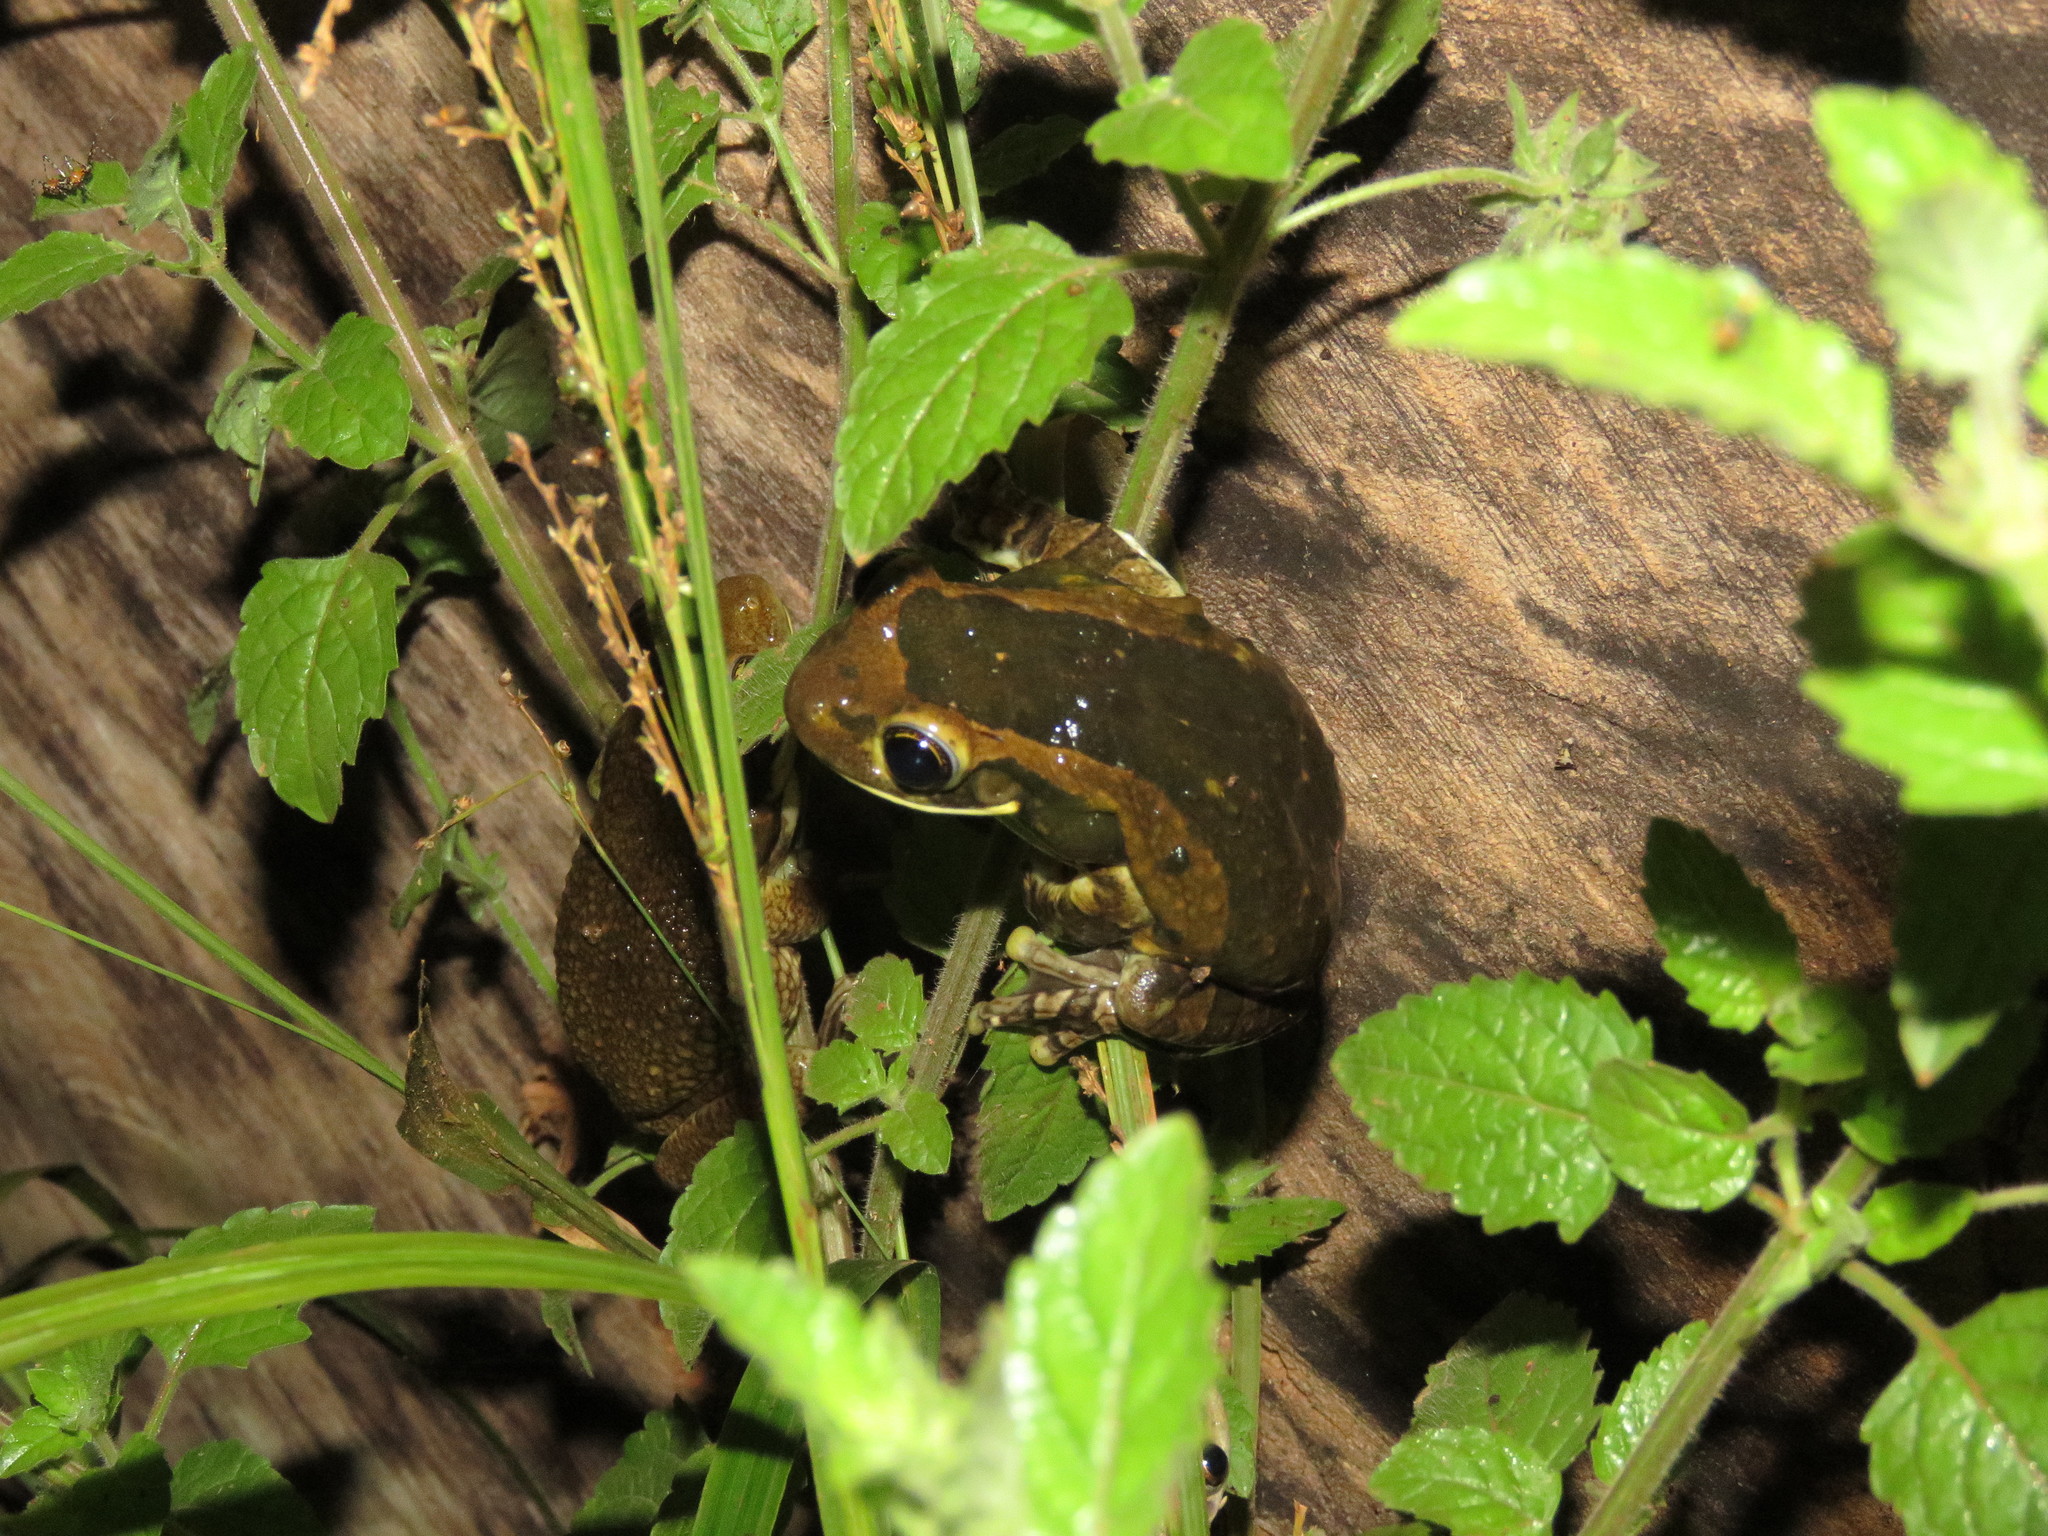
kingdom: Animalia
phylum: Chordata
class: Amphibia
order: Anura
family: Hylidae
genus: Trachycephalus
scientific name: Trachycephalus typhonius
